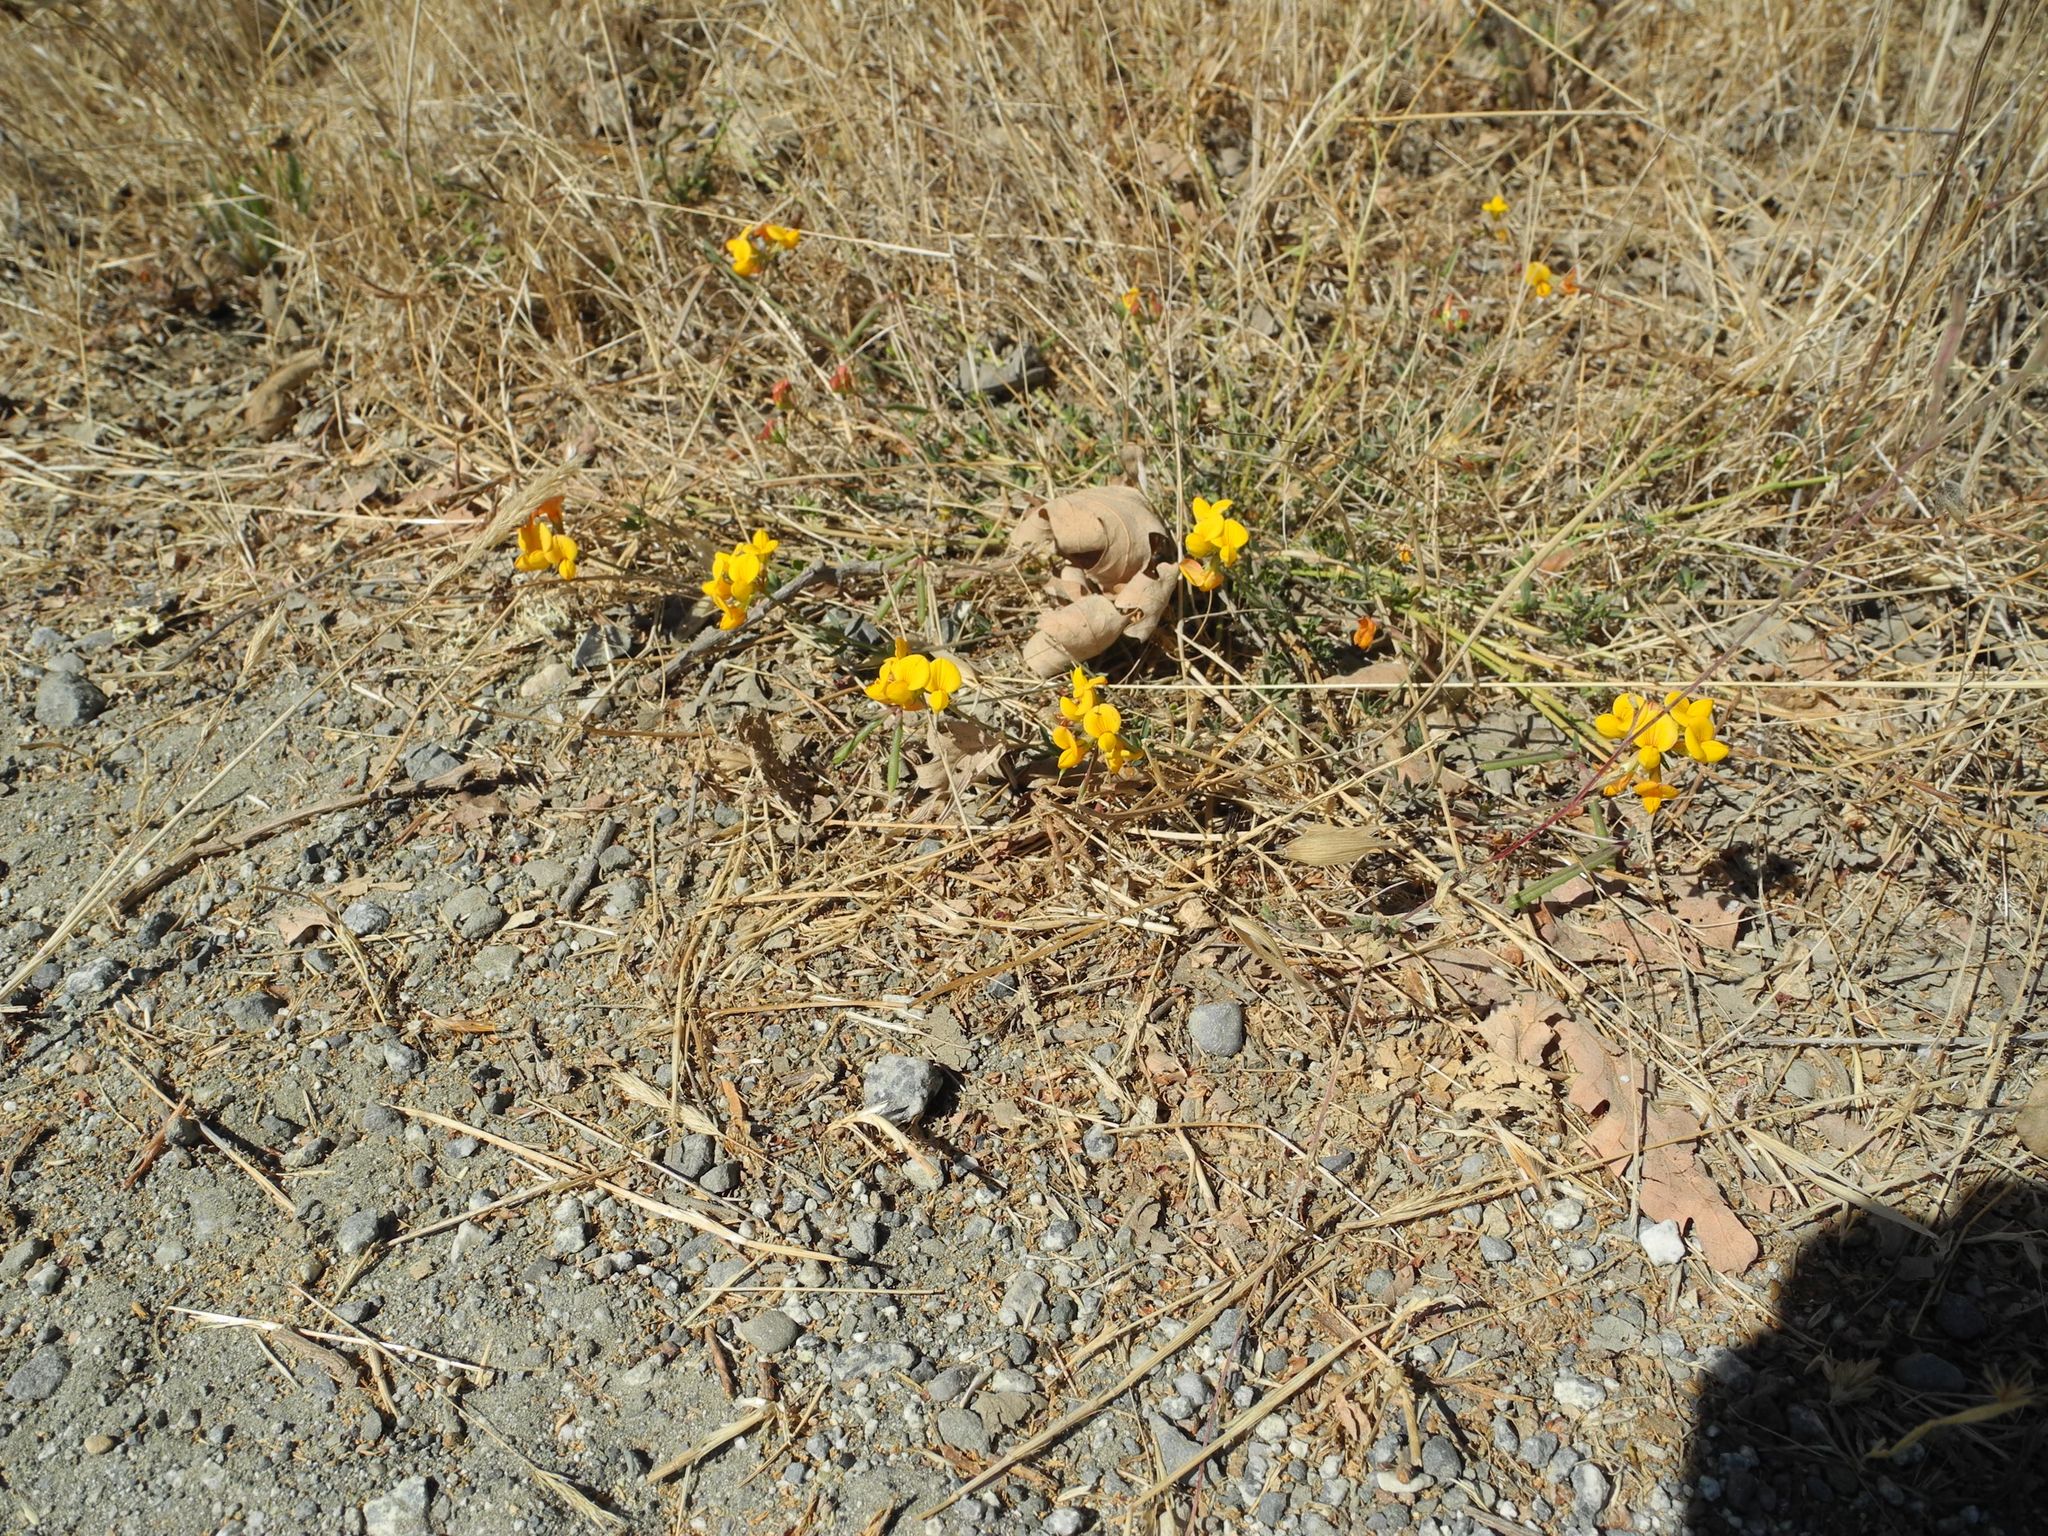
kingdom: Plantae
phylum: Tracheophyta
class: Magnoliopsida
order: Fabales
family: Fabaceae
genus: Lotus
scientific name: Lotus corniculatus
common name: Common bird's-foot-trefoil
